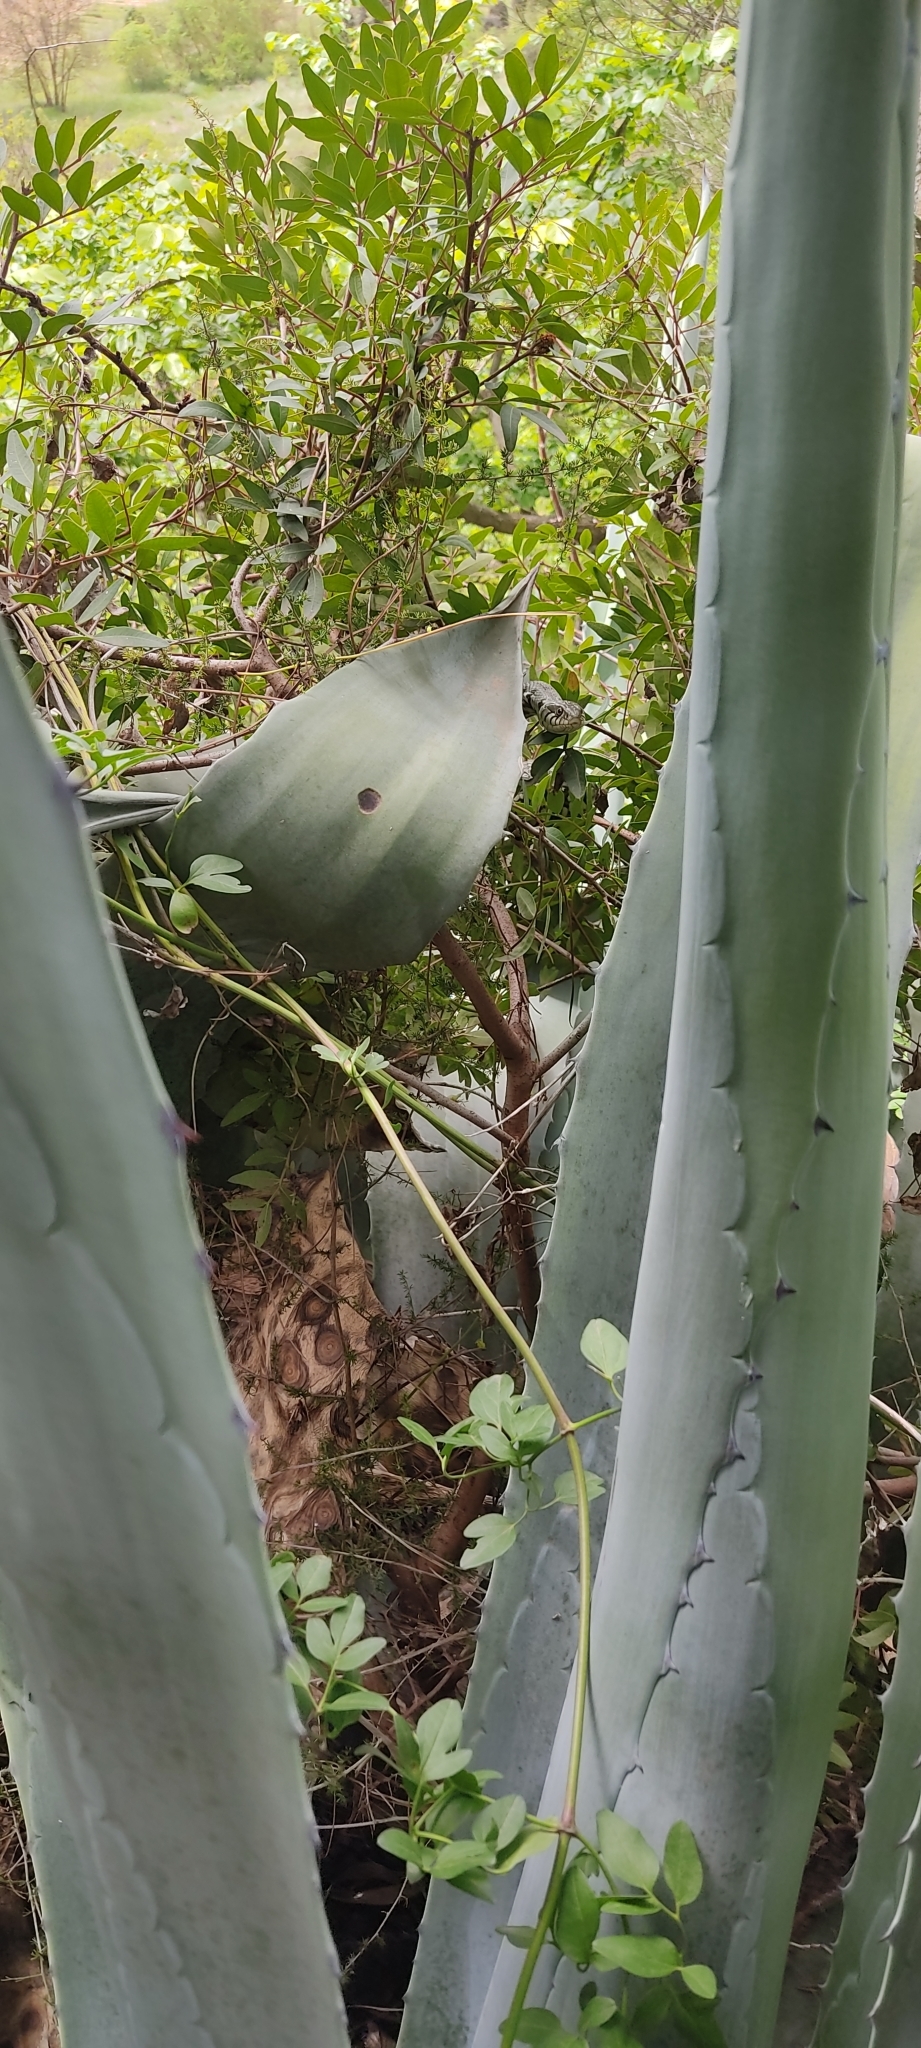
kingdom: Animalia
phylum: Chordata
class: Squamata
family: Colubridae
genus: Natrix
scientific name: Natrix helvetica
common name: Banded grass snake
